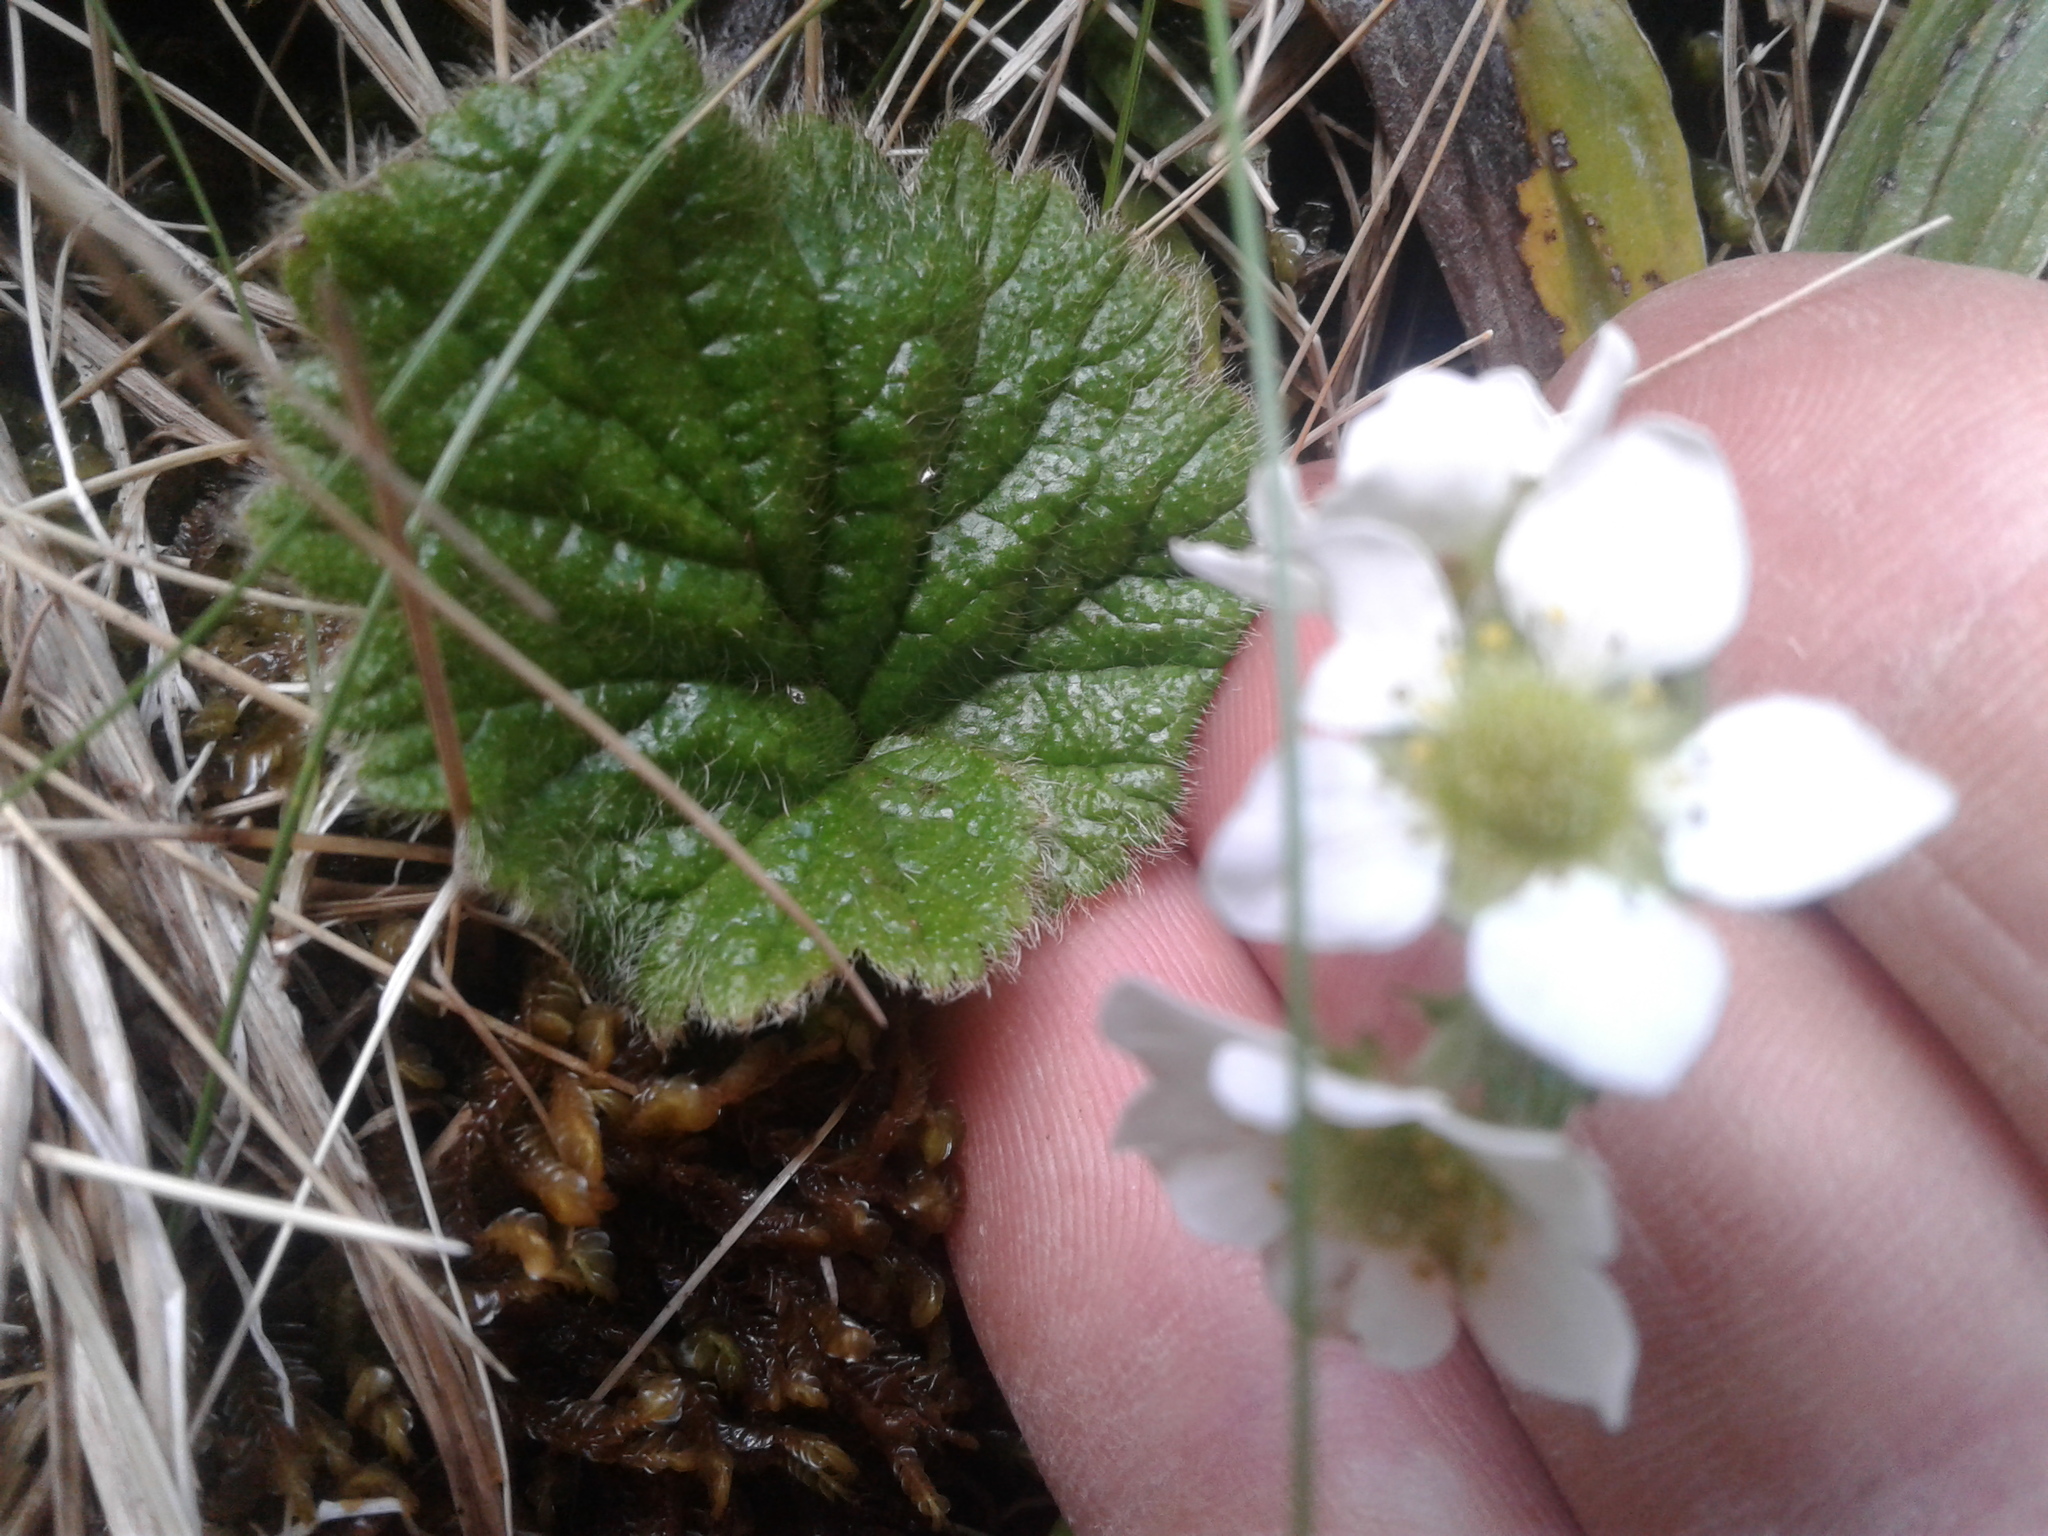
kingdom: Plantae
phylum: Tracheophyta
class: Magnoliopsida
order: Rosales
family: Rosaceae
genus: Geum
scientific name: Geum cockaynei
